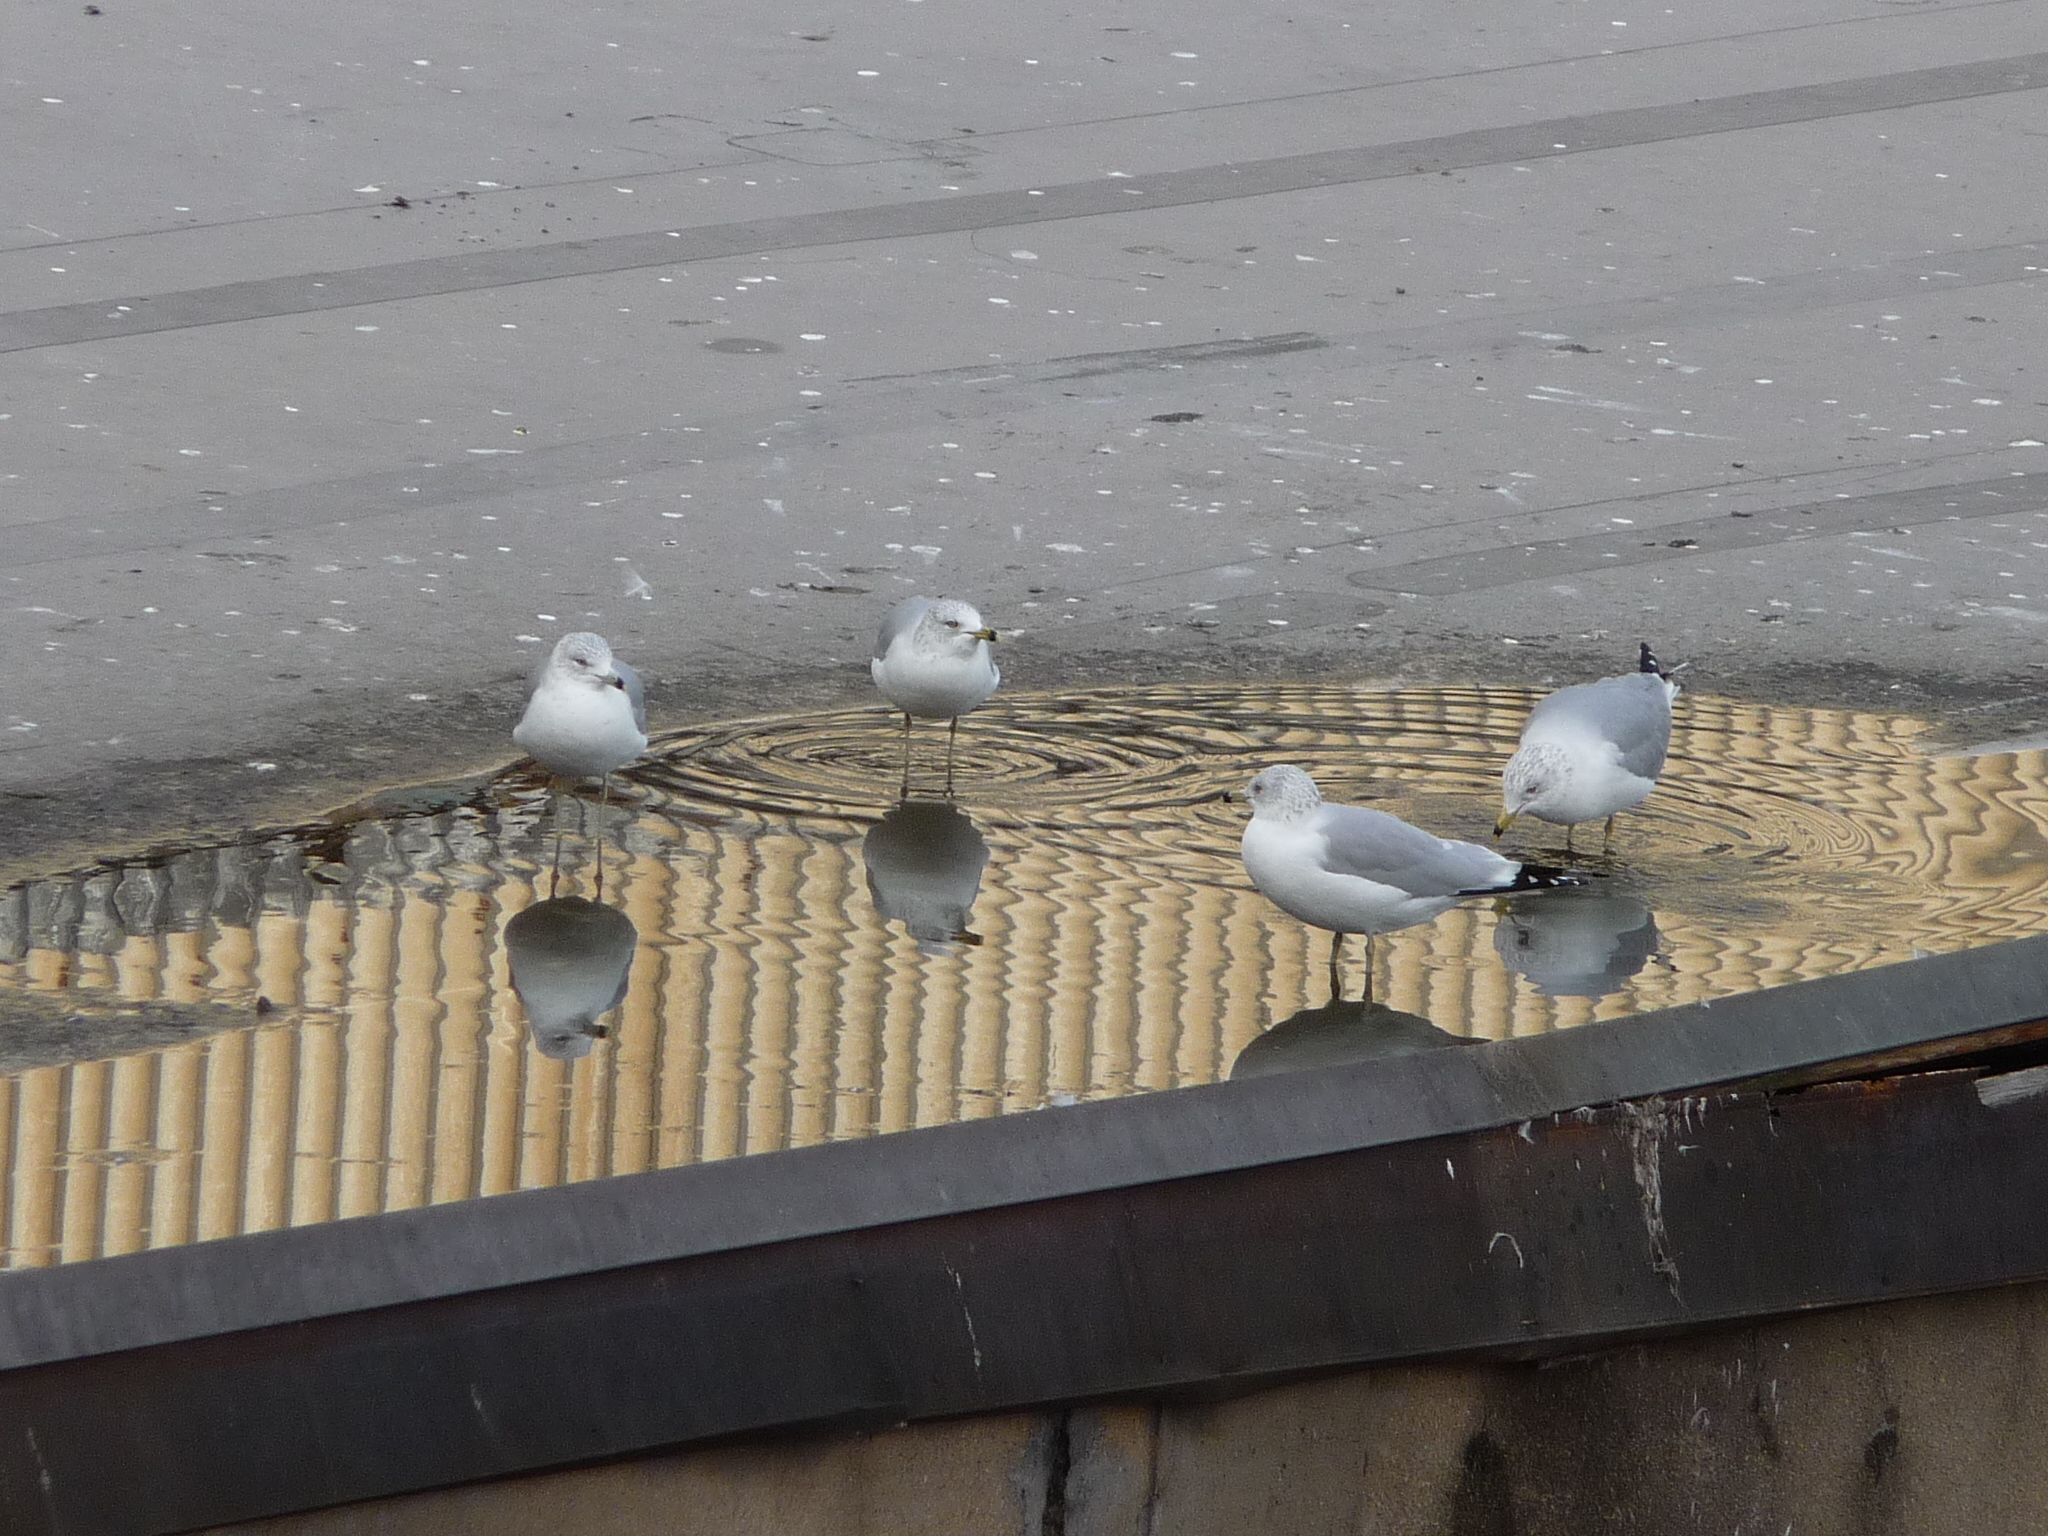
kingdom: Animalia
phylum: Chordata
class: Aves
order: Charadriiformes
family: Laridae
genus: Larus
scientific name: Larus delawarensis
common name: Ring-billed gull
